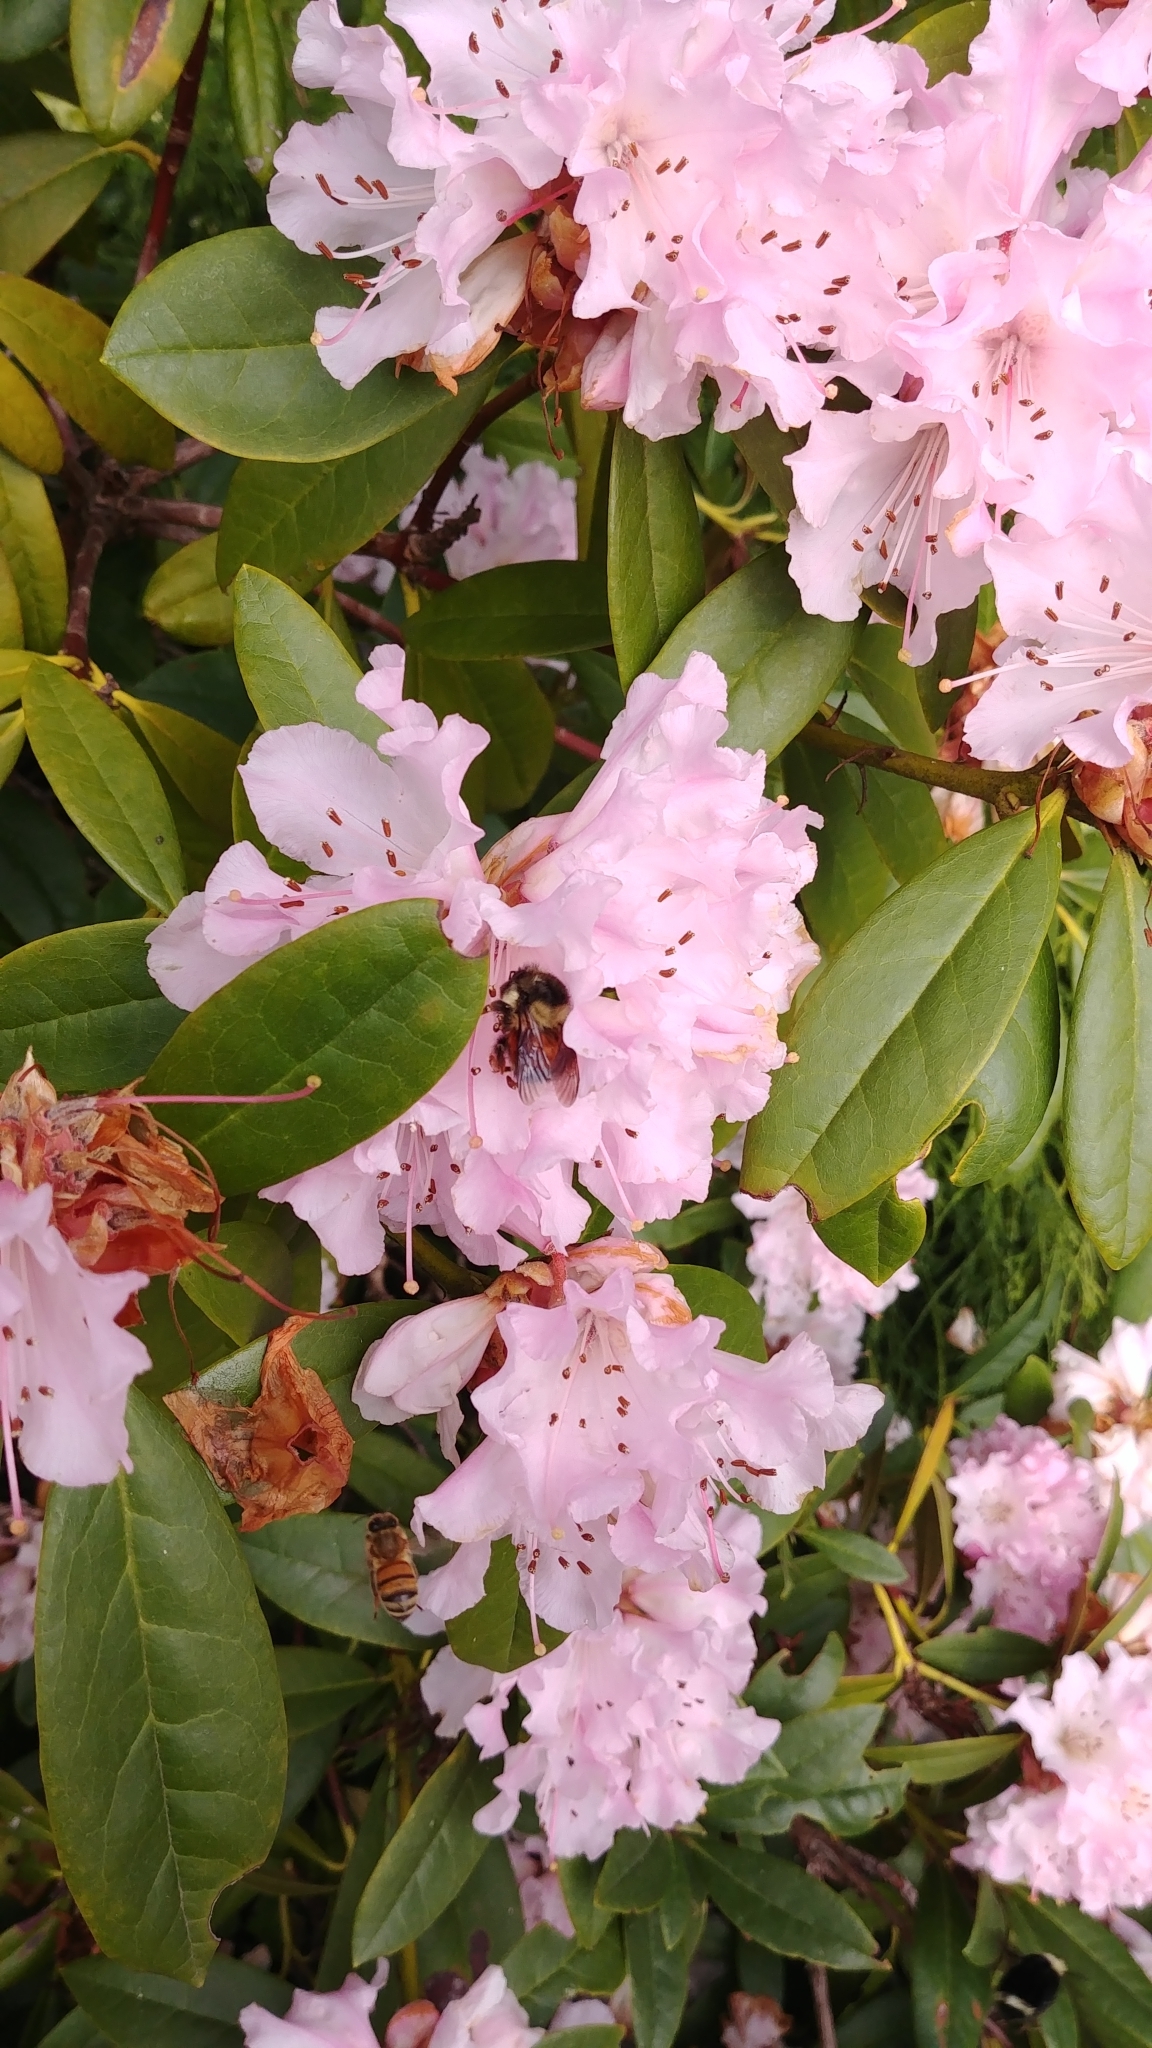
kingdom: Animalia
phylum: Arthropoda
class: Insecta
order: Hymenoptera
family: Apidae
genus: Bombus
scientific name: Bombus melanopygus
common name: Black tail bumble bee
